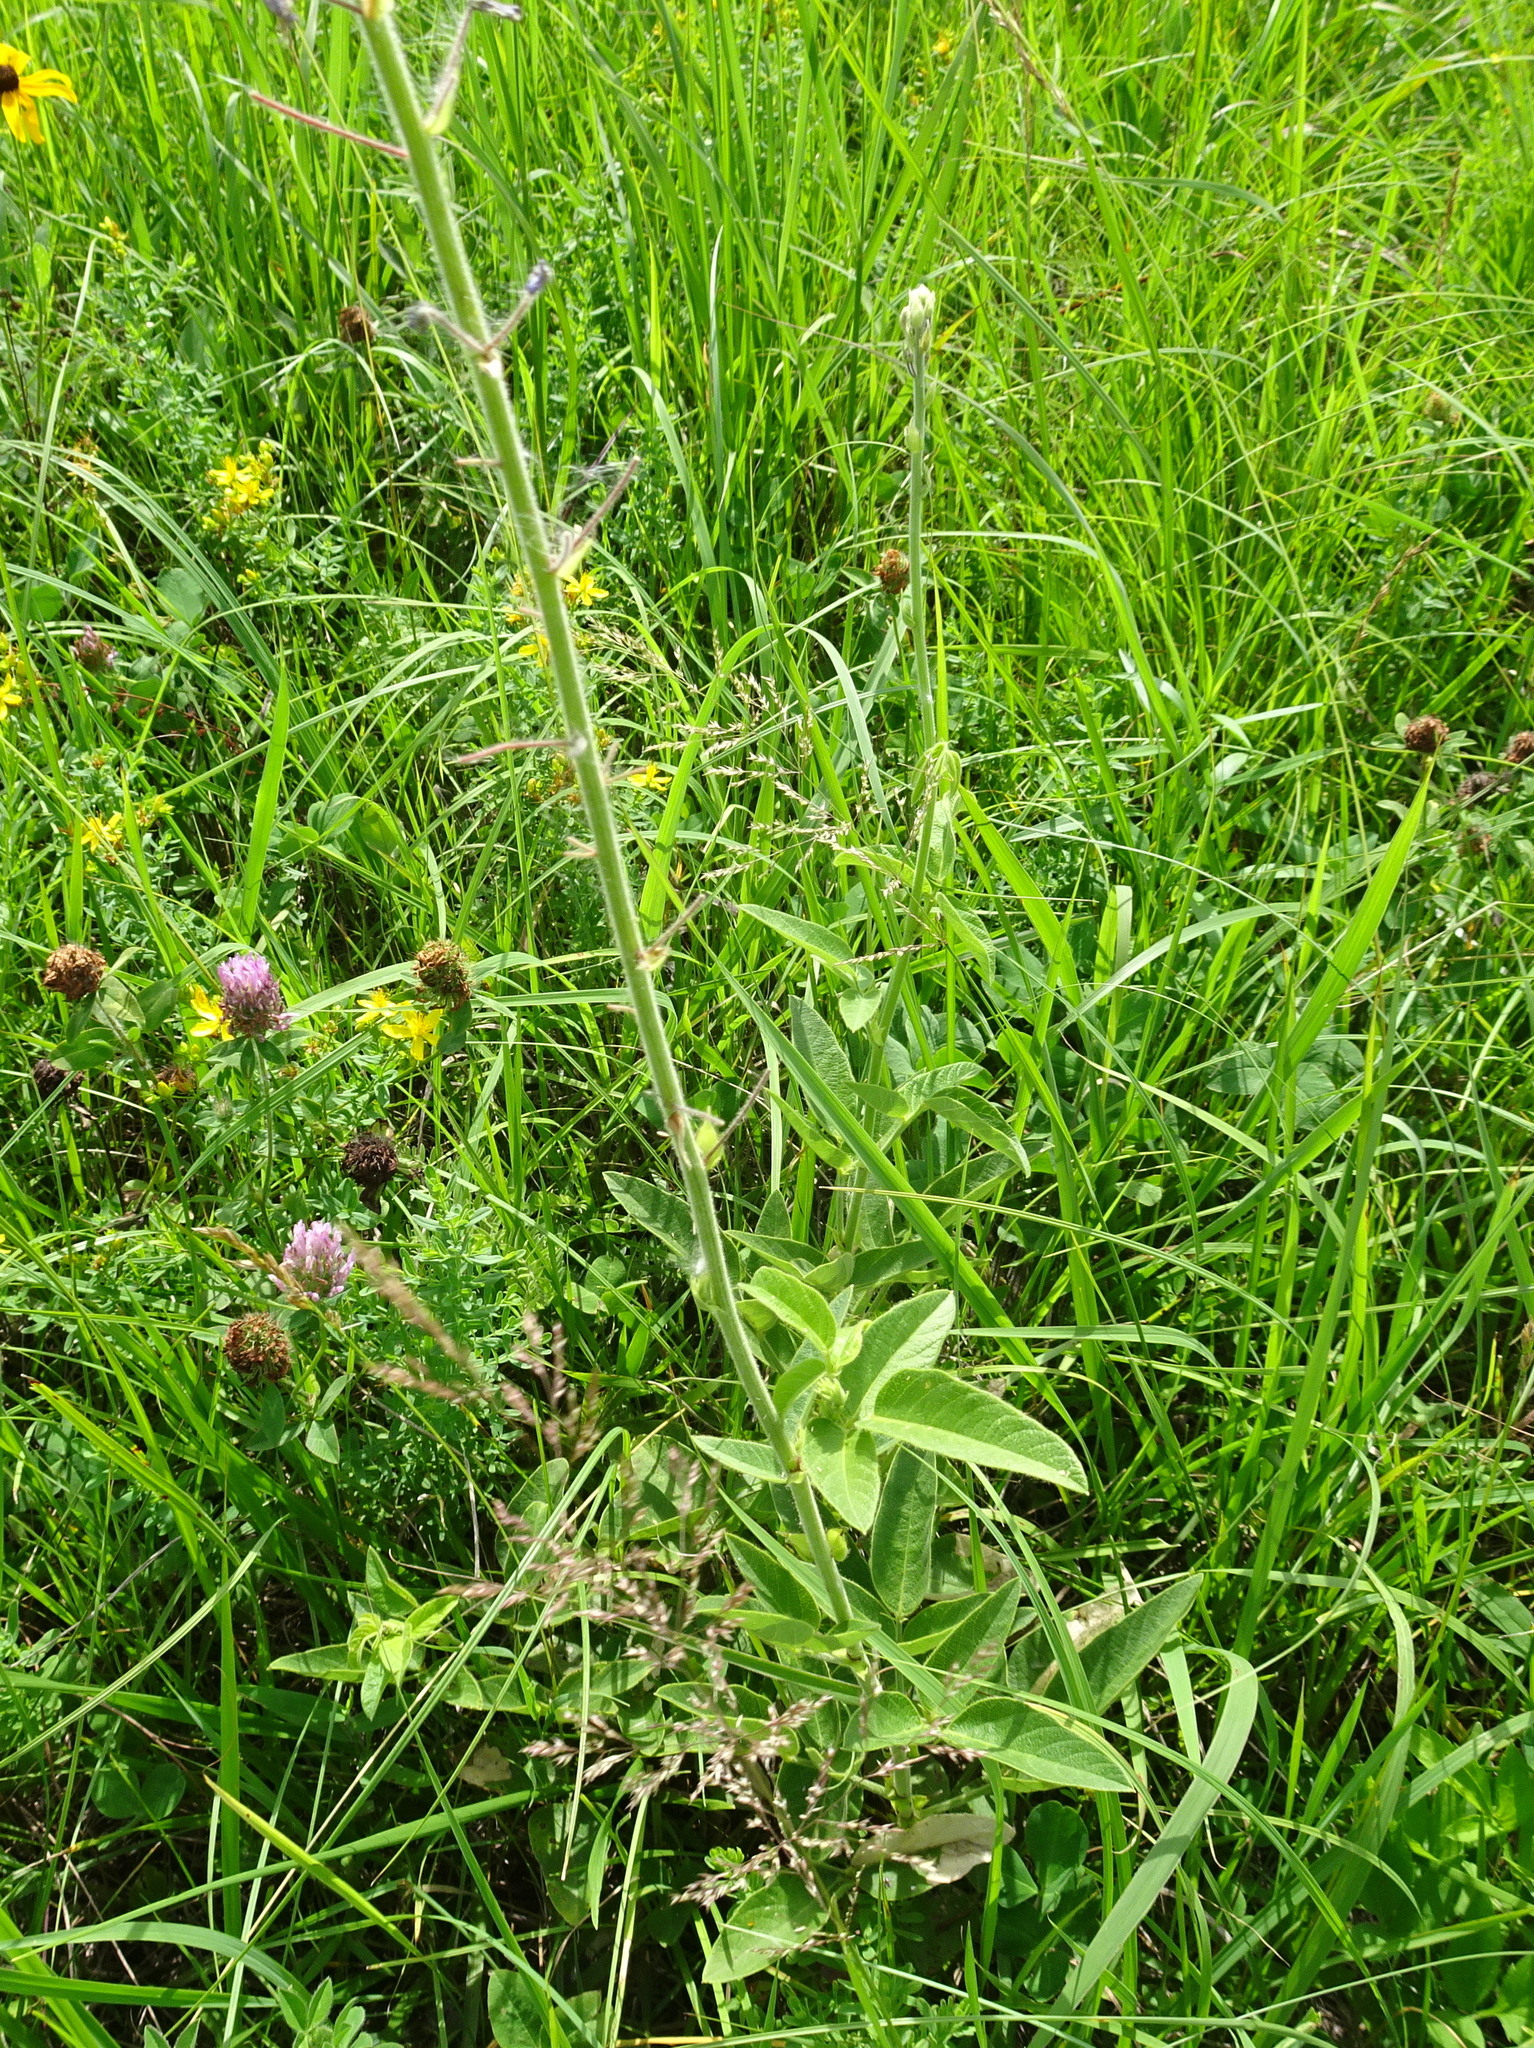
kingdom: Plantae
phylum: Tracheophyta
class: Magnoliopsida
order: Fabales
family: Fabaceae
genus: Desmodium
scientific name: Desmodium illinoense
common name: Illinois tick-clover
